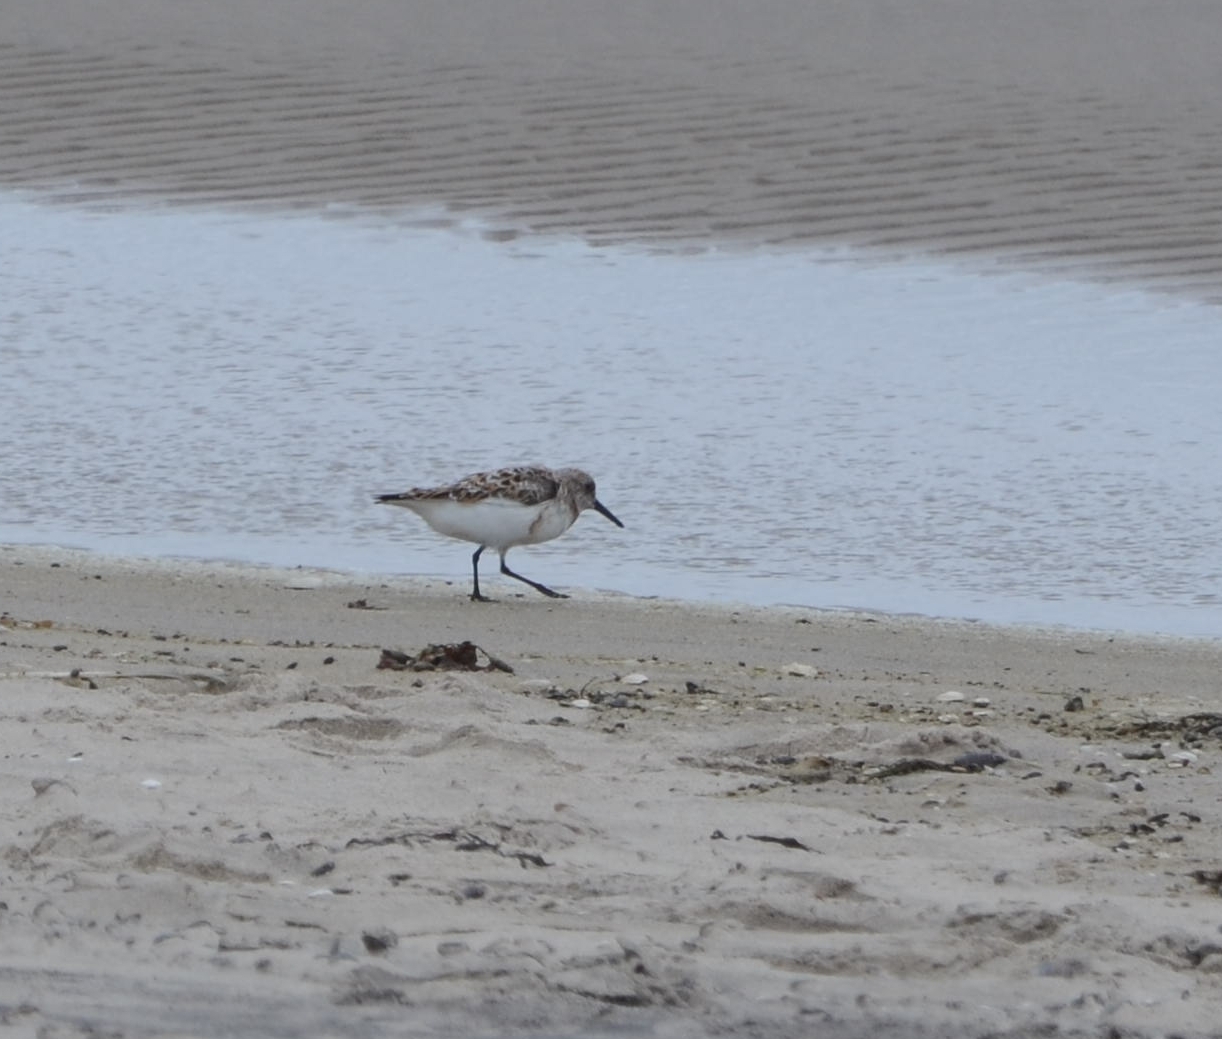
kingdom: Animalia
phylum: Chordata
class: Aves
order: Charadriiformes
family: Scolopacidae
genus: Calidris
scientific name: Calidris alba
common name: Sanderling
